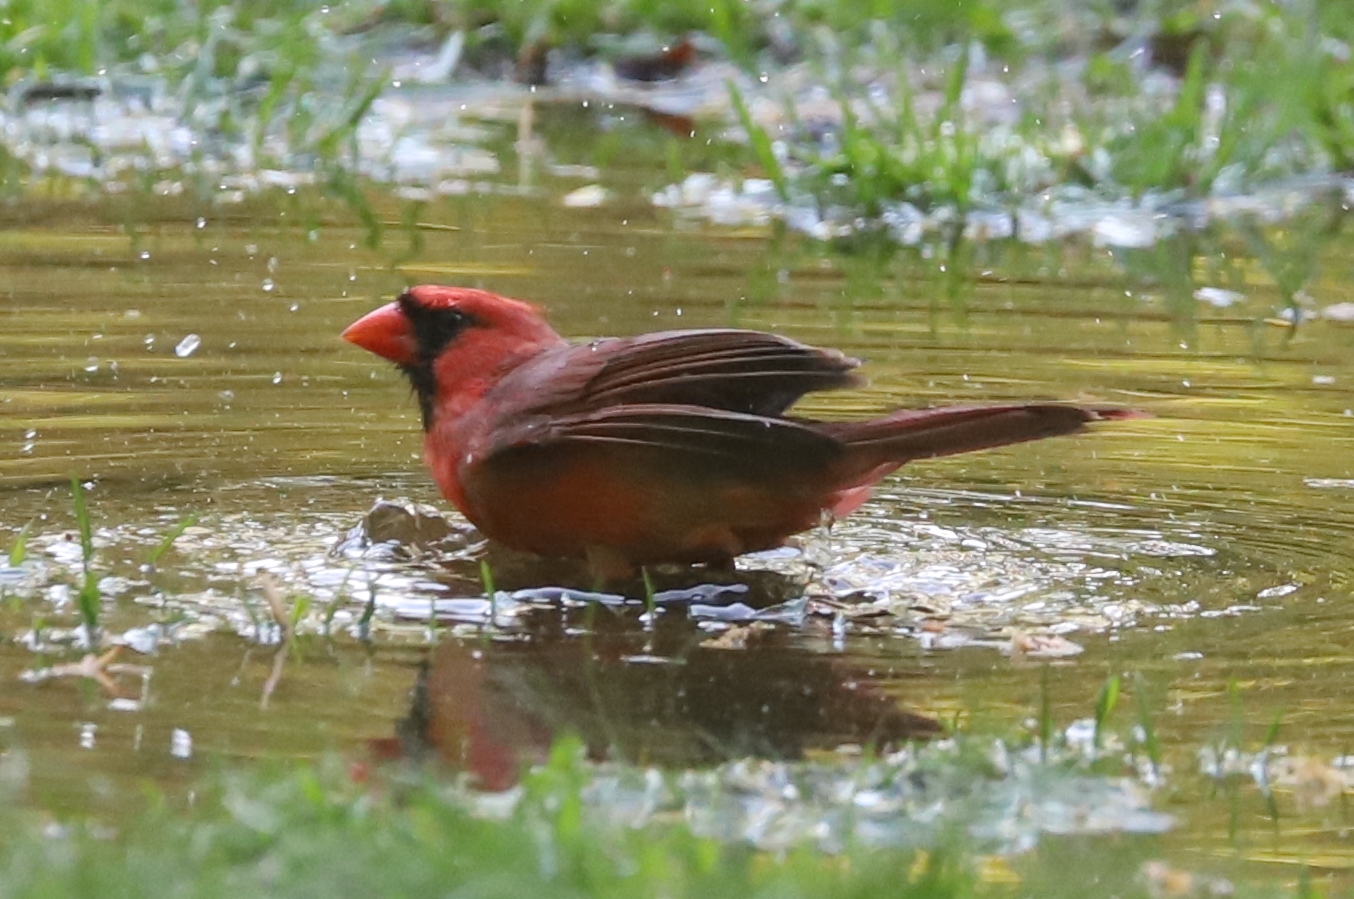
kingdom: Animalia
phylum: Chordata
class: Aves
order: Passeriformes
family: Cardinalidae
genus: Cardinalis
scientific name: Cardinalis cardinalis
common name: Northern cardinal
